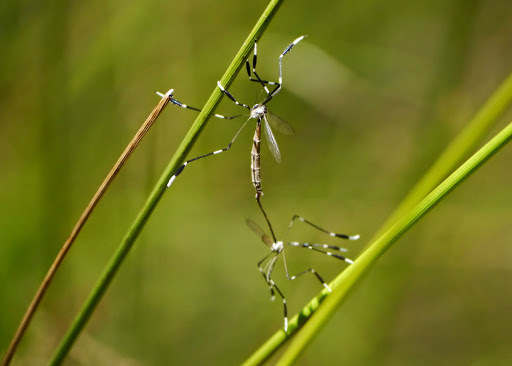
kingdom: Animalia
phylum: Arthropoda
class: Insecta
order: Diptera
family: Ptychopteridae
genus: Bittacomorpha
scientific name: Bittacomorpha clavipes
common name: Eastern phantom crane fly
